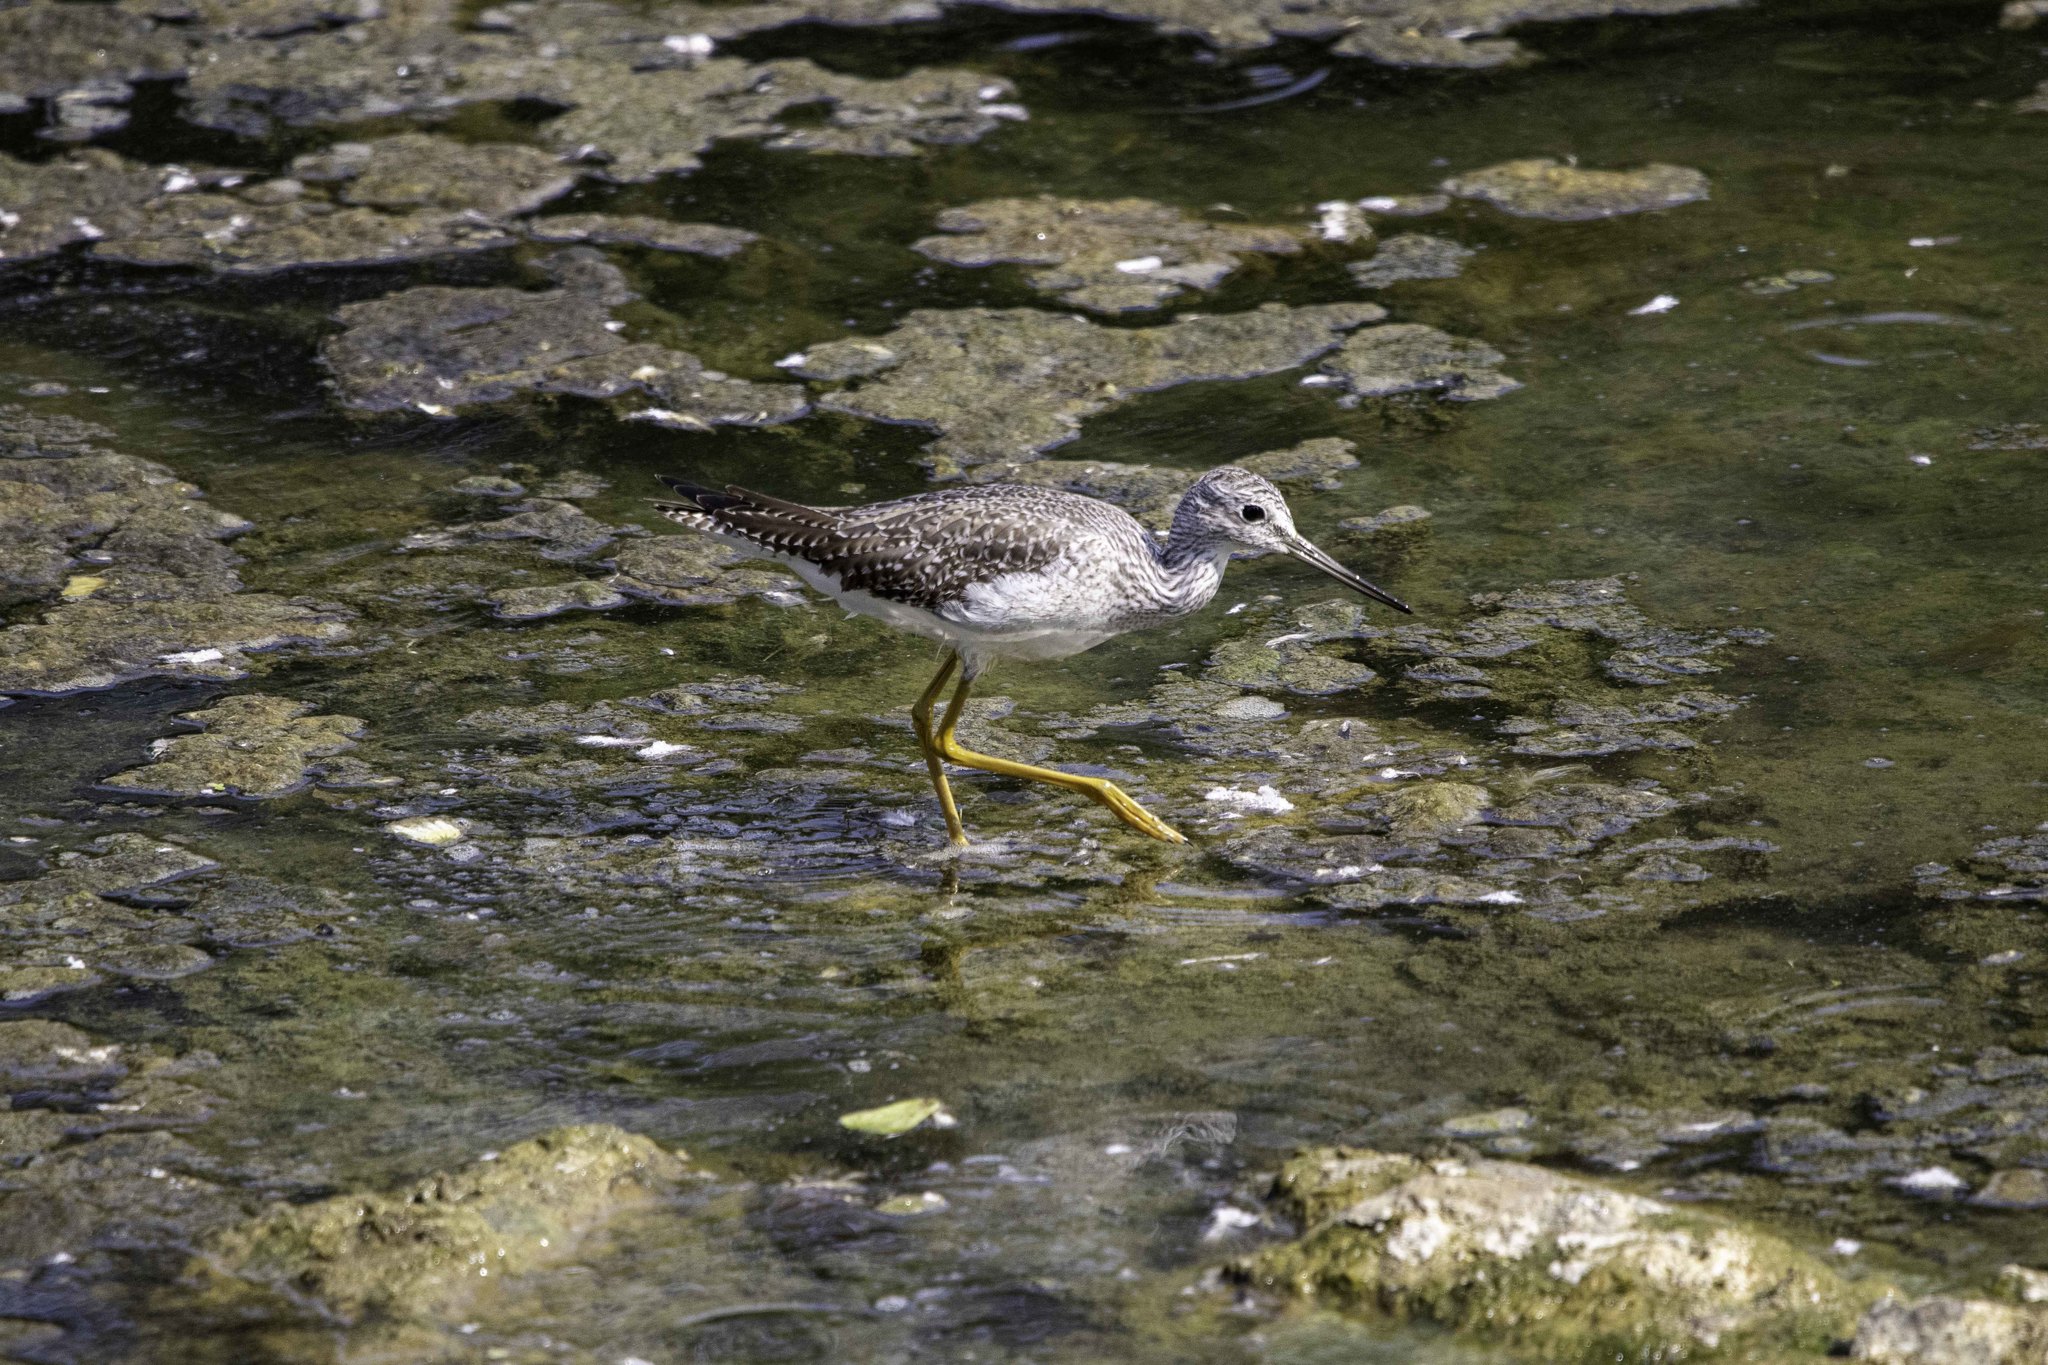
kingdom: Animalia
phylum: Chordata
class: Aves
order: Charadriiformes
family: Scolopacidae
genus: Tringa
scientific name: Tringa melanoleuca
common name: Greater yellowlegs
